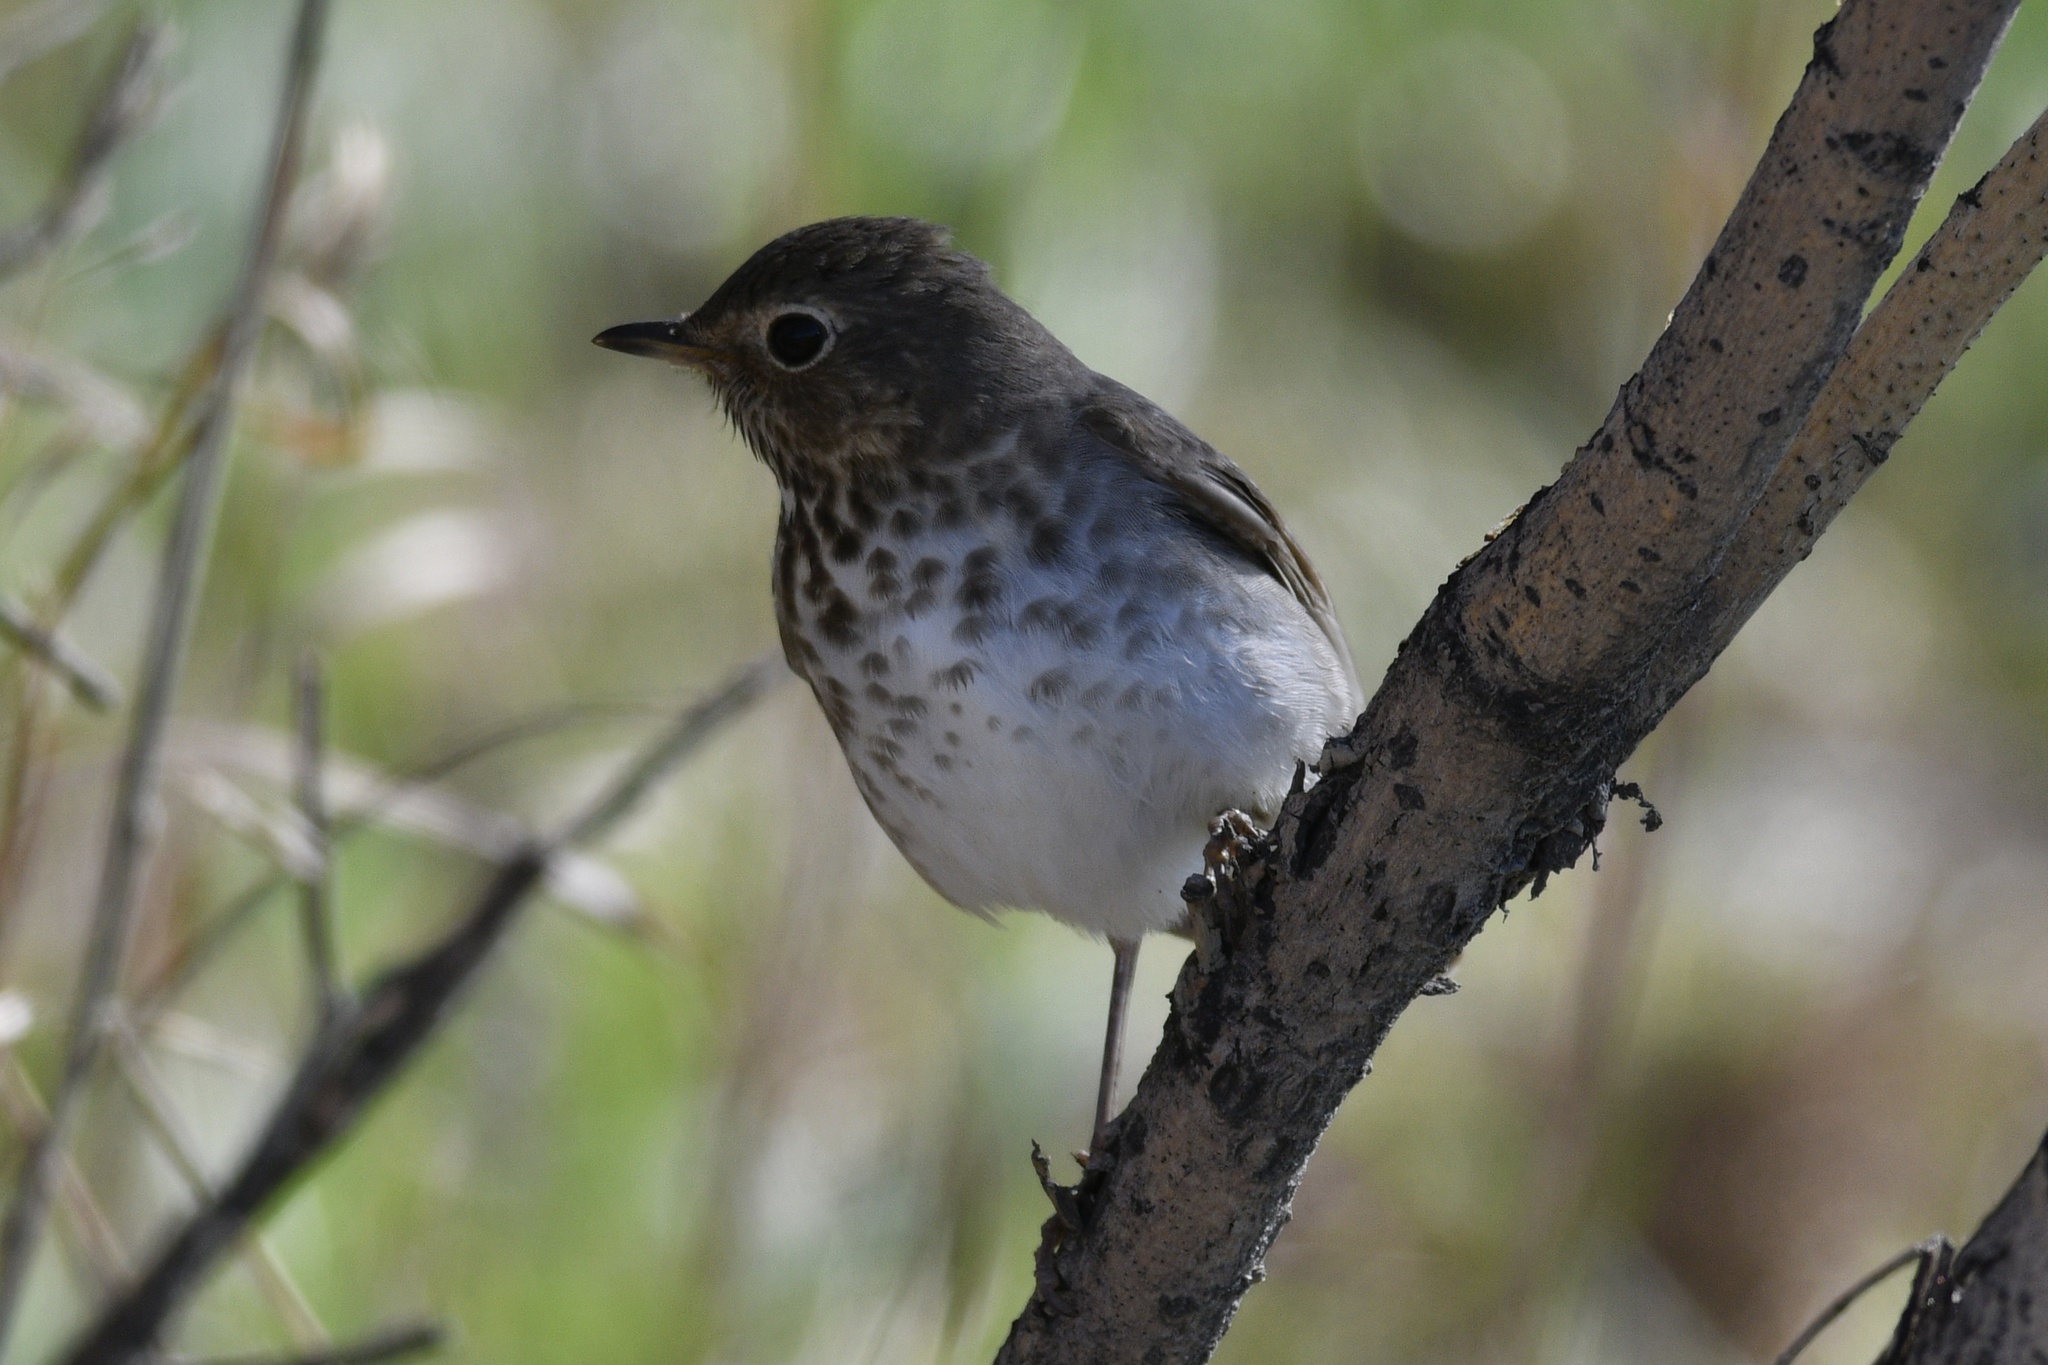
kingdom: Animalia
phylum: Chordata
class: Aves
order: Passeriformes
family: Turdidae
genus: Catharus
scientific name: Catharus ustulatus
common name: Swainson's thrush
